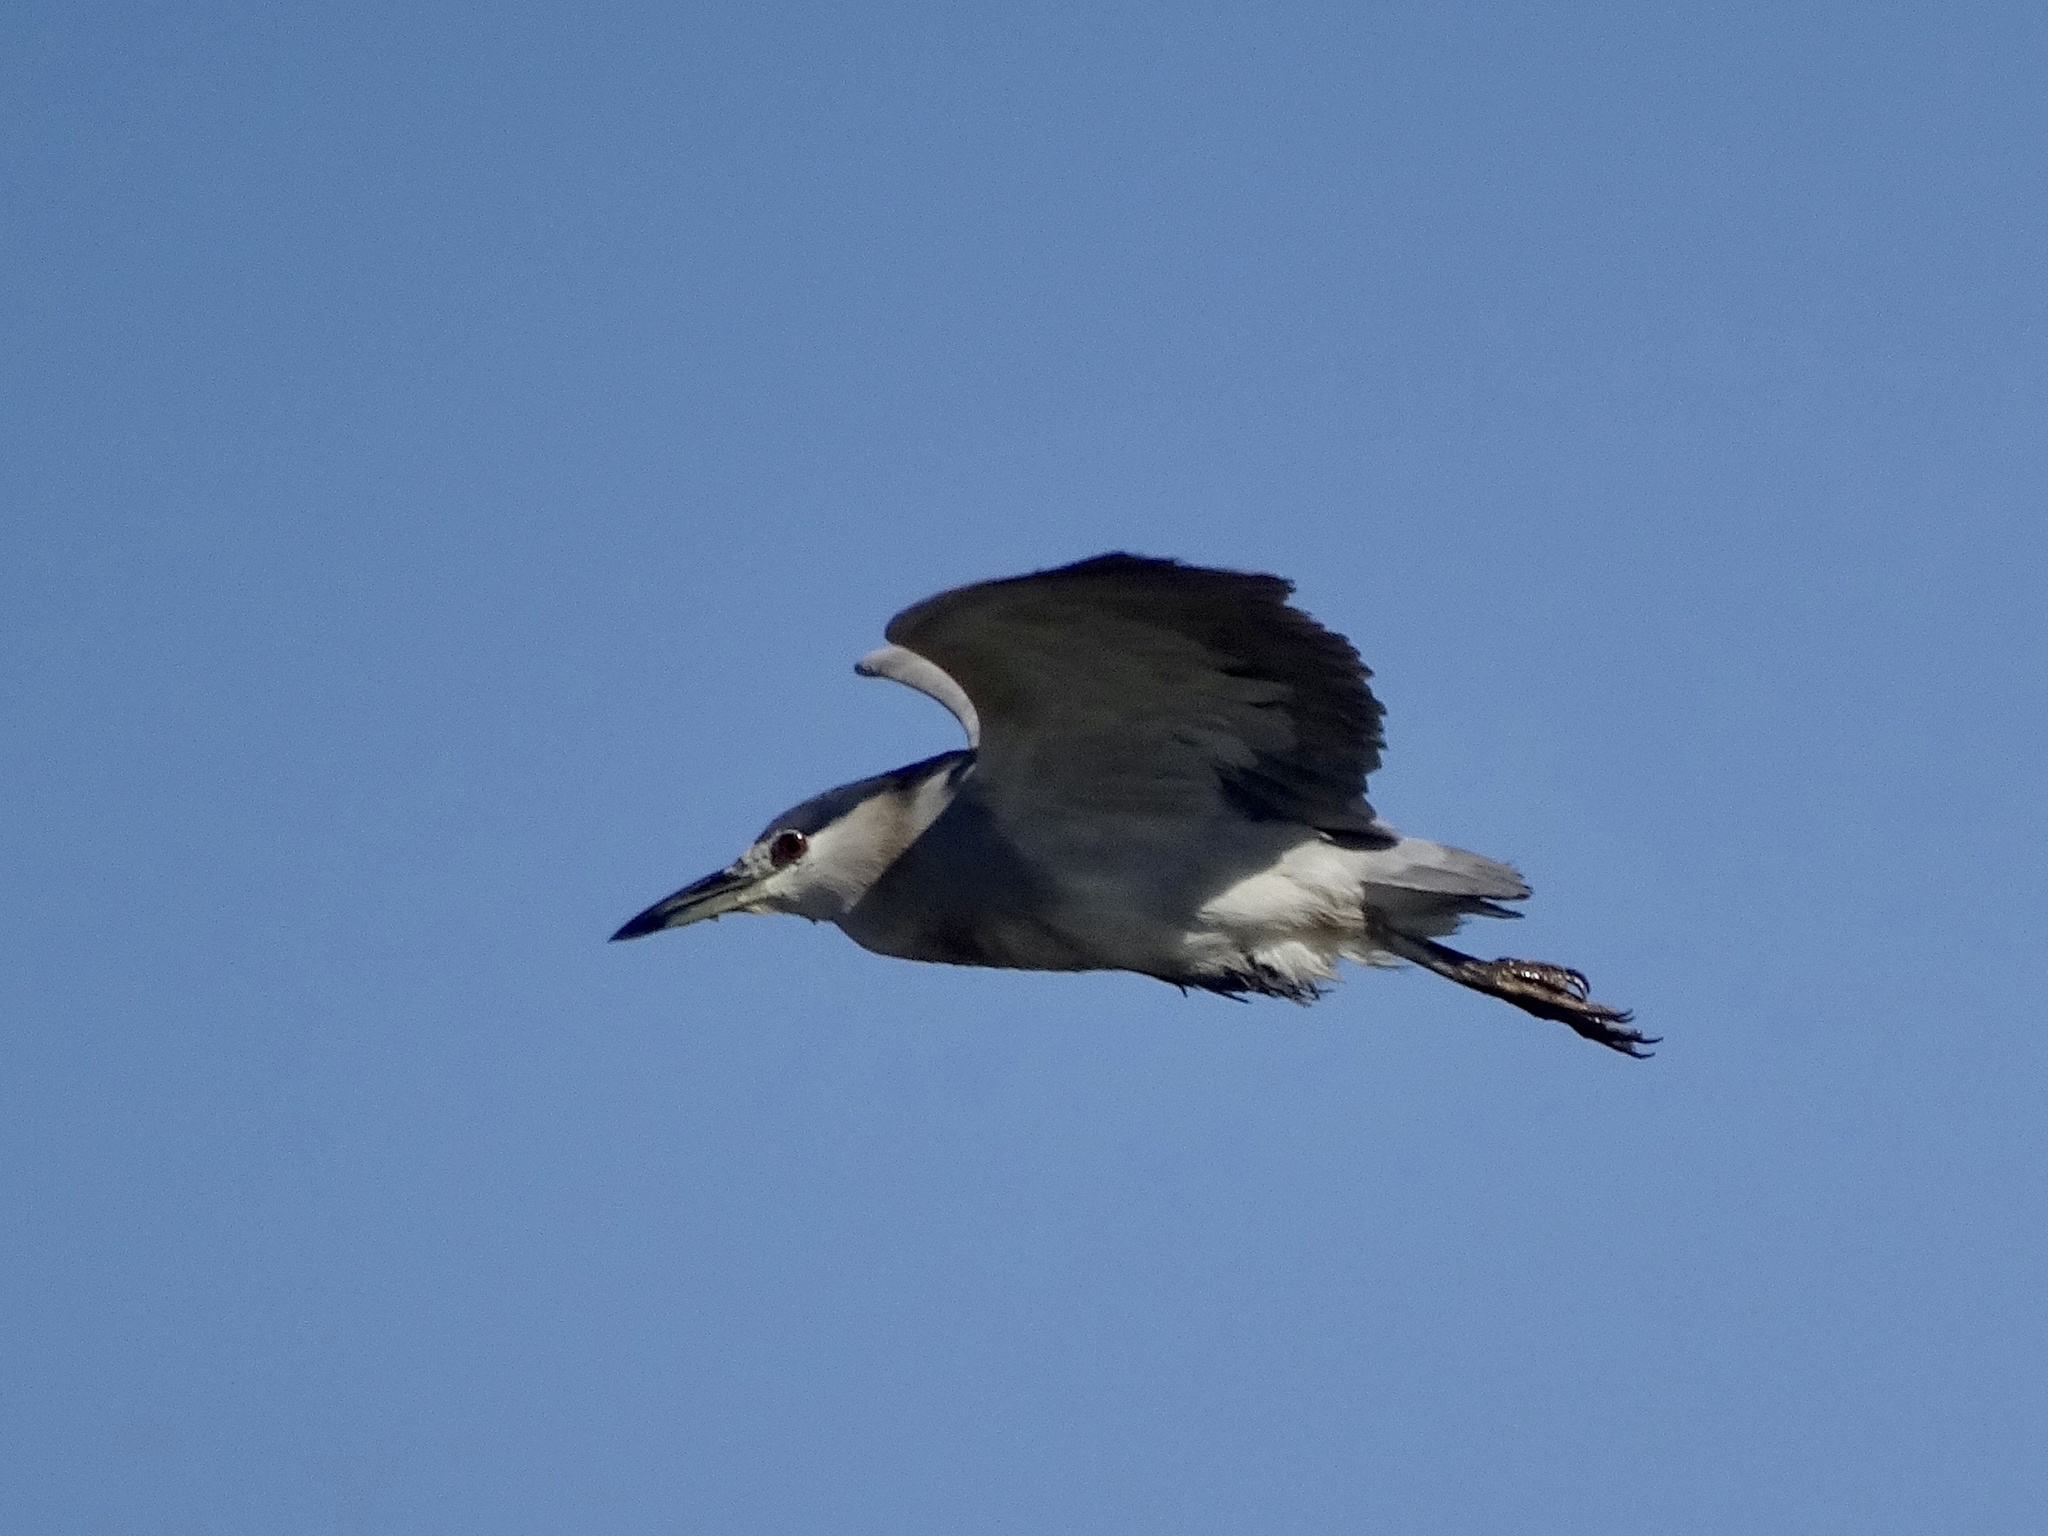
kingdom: Animalia
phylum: Chordata
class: Aves
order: Pelecaniformes
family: Ardeidae
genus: Nycticorax
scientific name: Nycticorax nycticorax
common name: Black-crowned night heron
